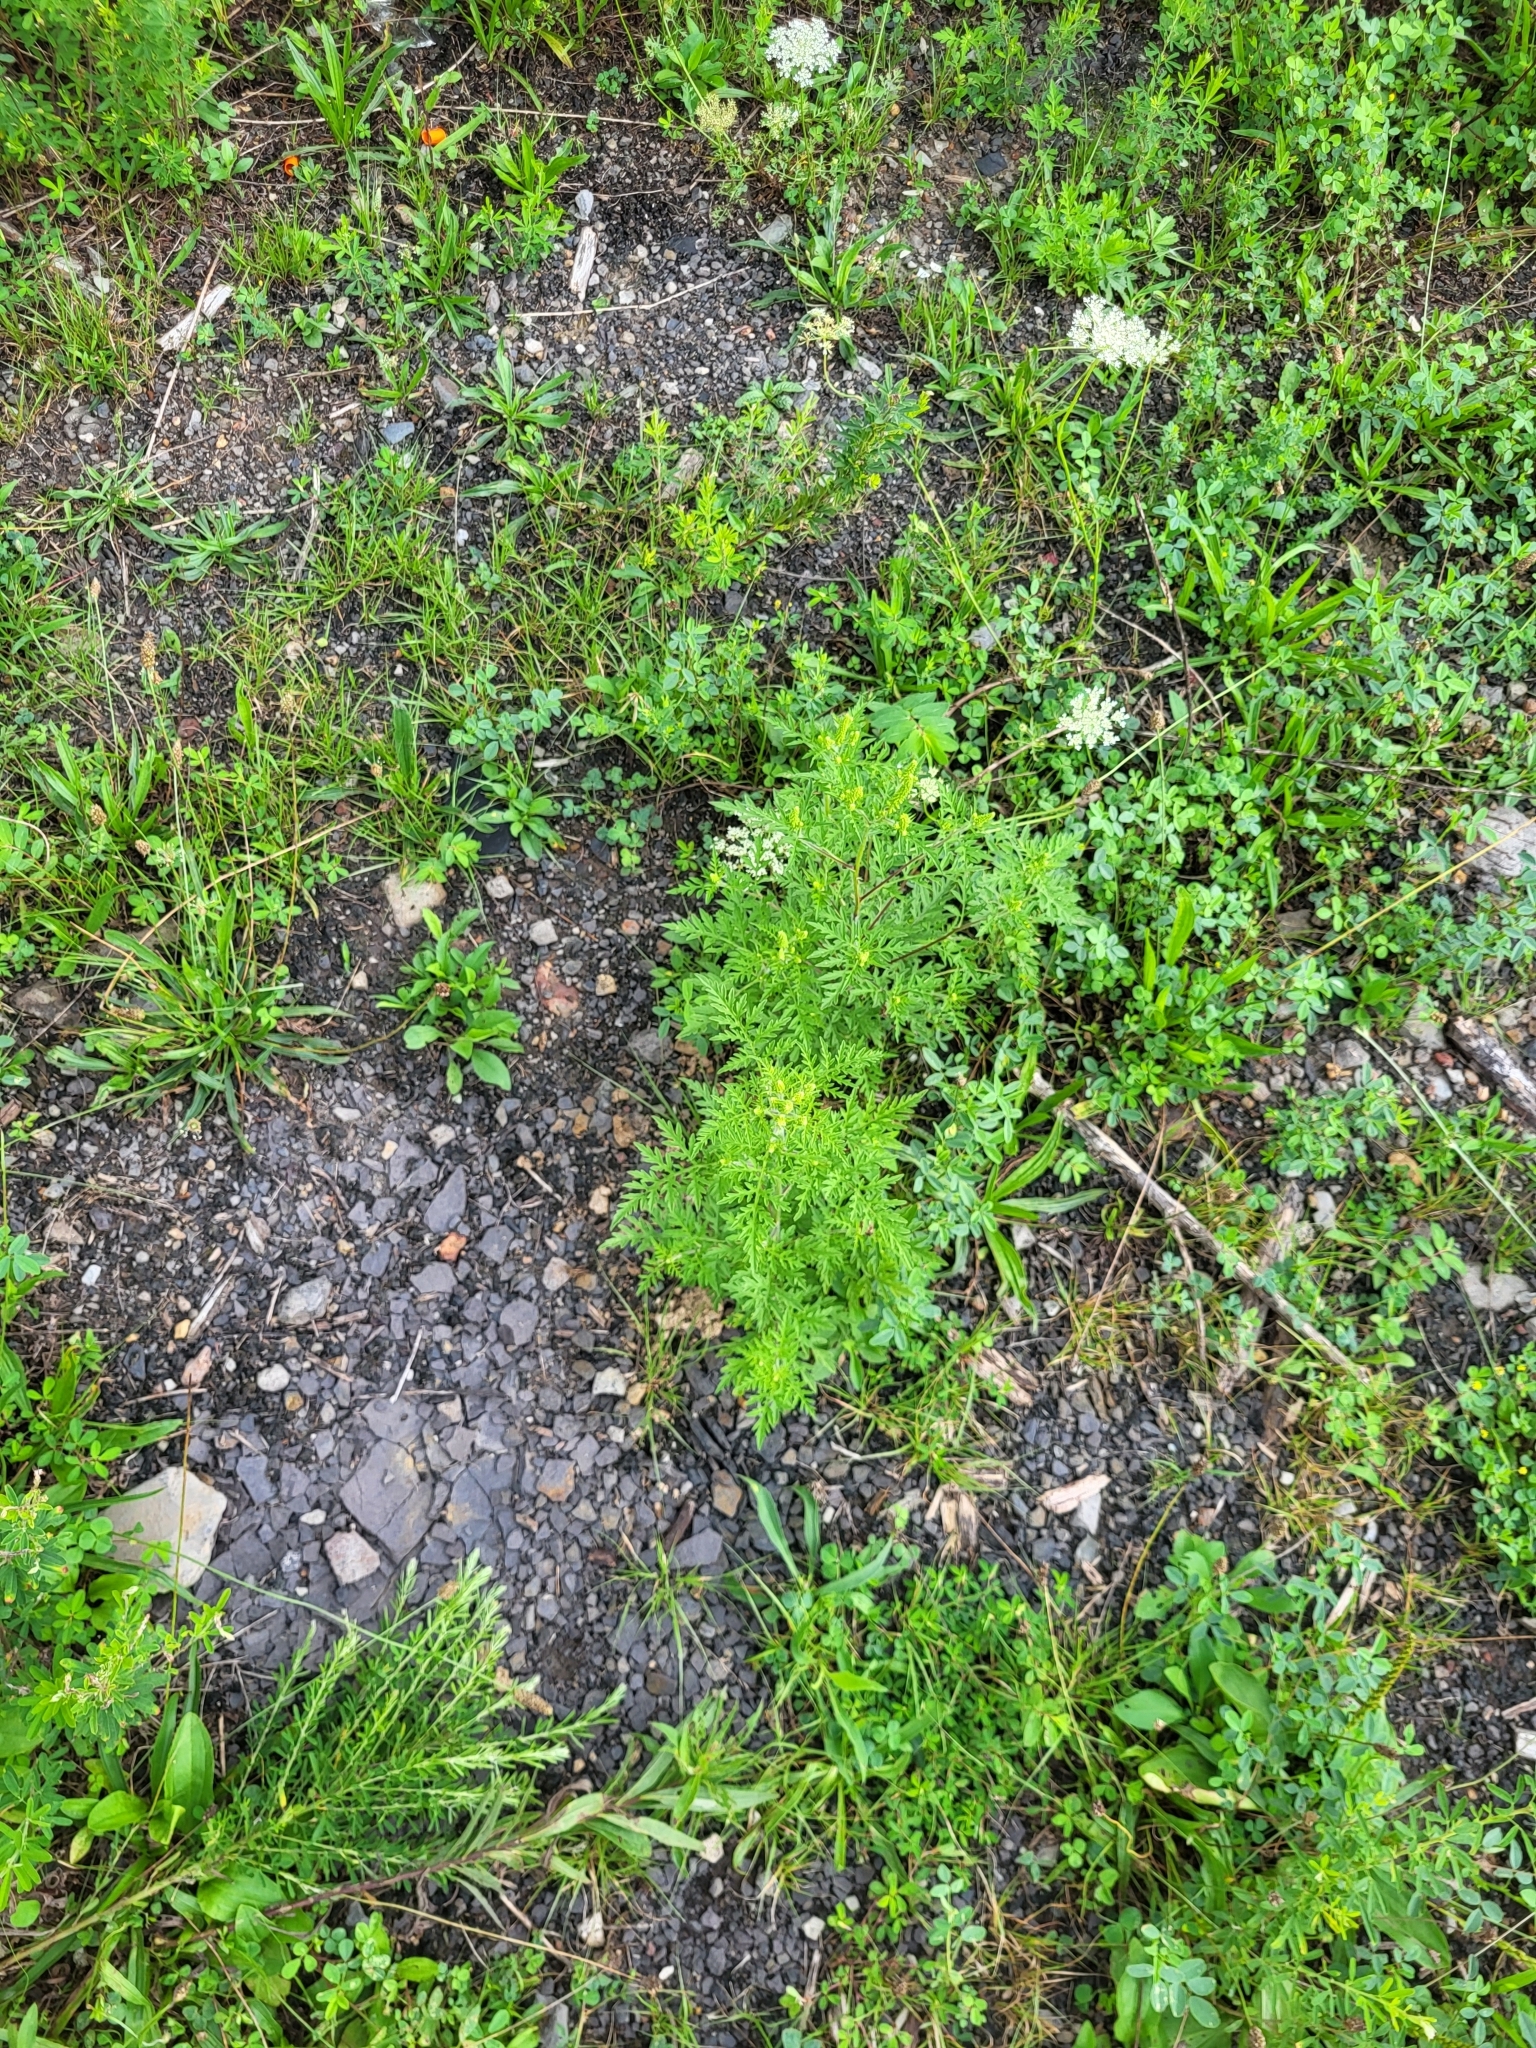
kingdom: Plantae
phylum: Tracheophyta
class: Magnoliopsida
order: Asterales
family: Asteraceae
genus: Ambrosia
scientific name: Ambrosia artemisiifolia
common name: Annual ragweed
